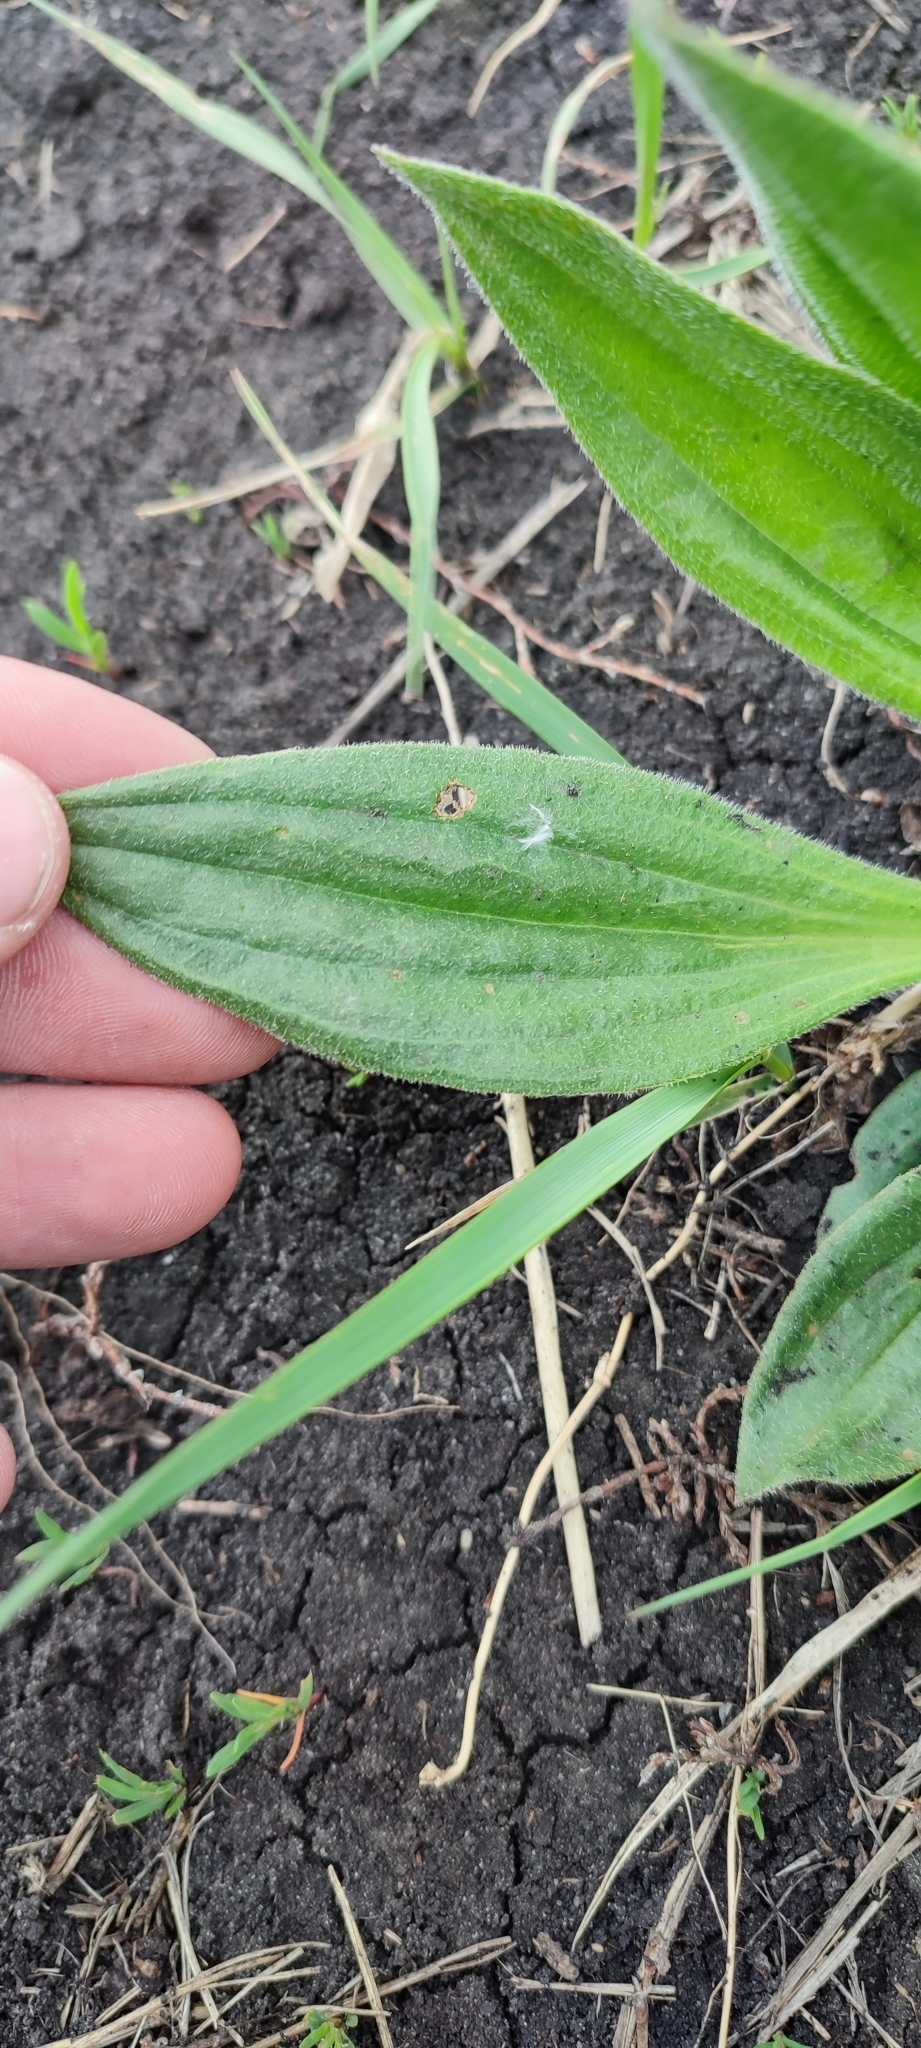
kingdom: Plantae
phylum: Tracheophyta
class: Magnoliopsida
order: Lamiales
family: Plantaginaceae
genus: Plantago
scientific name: Plantago urvillei
